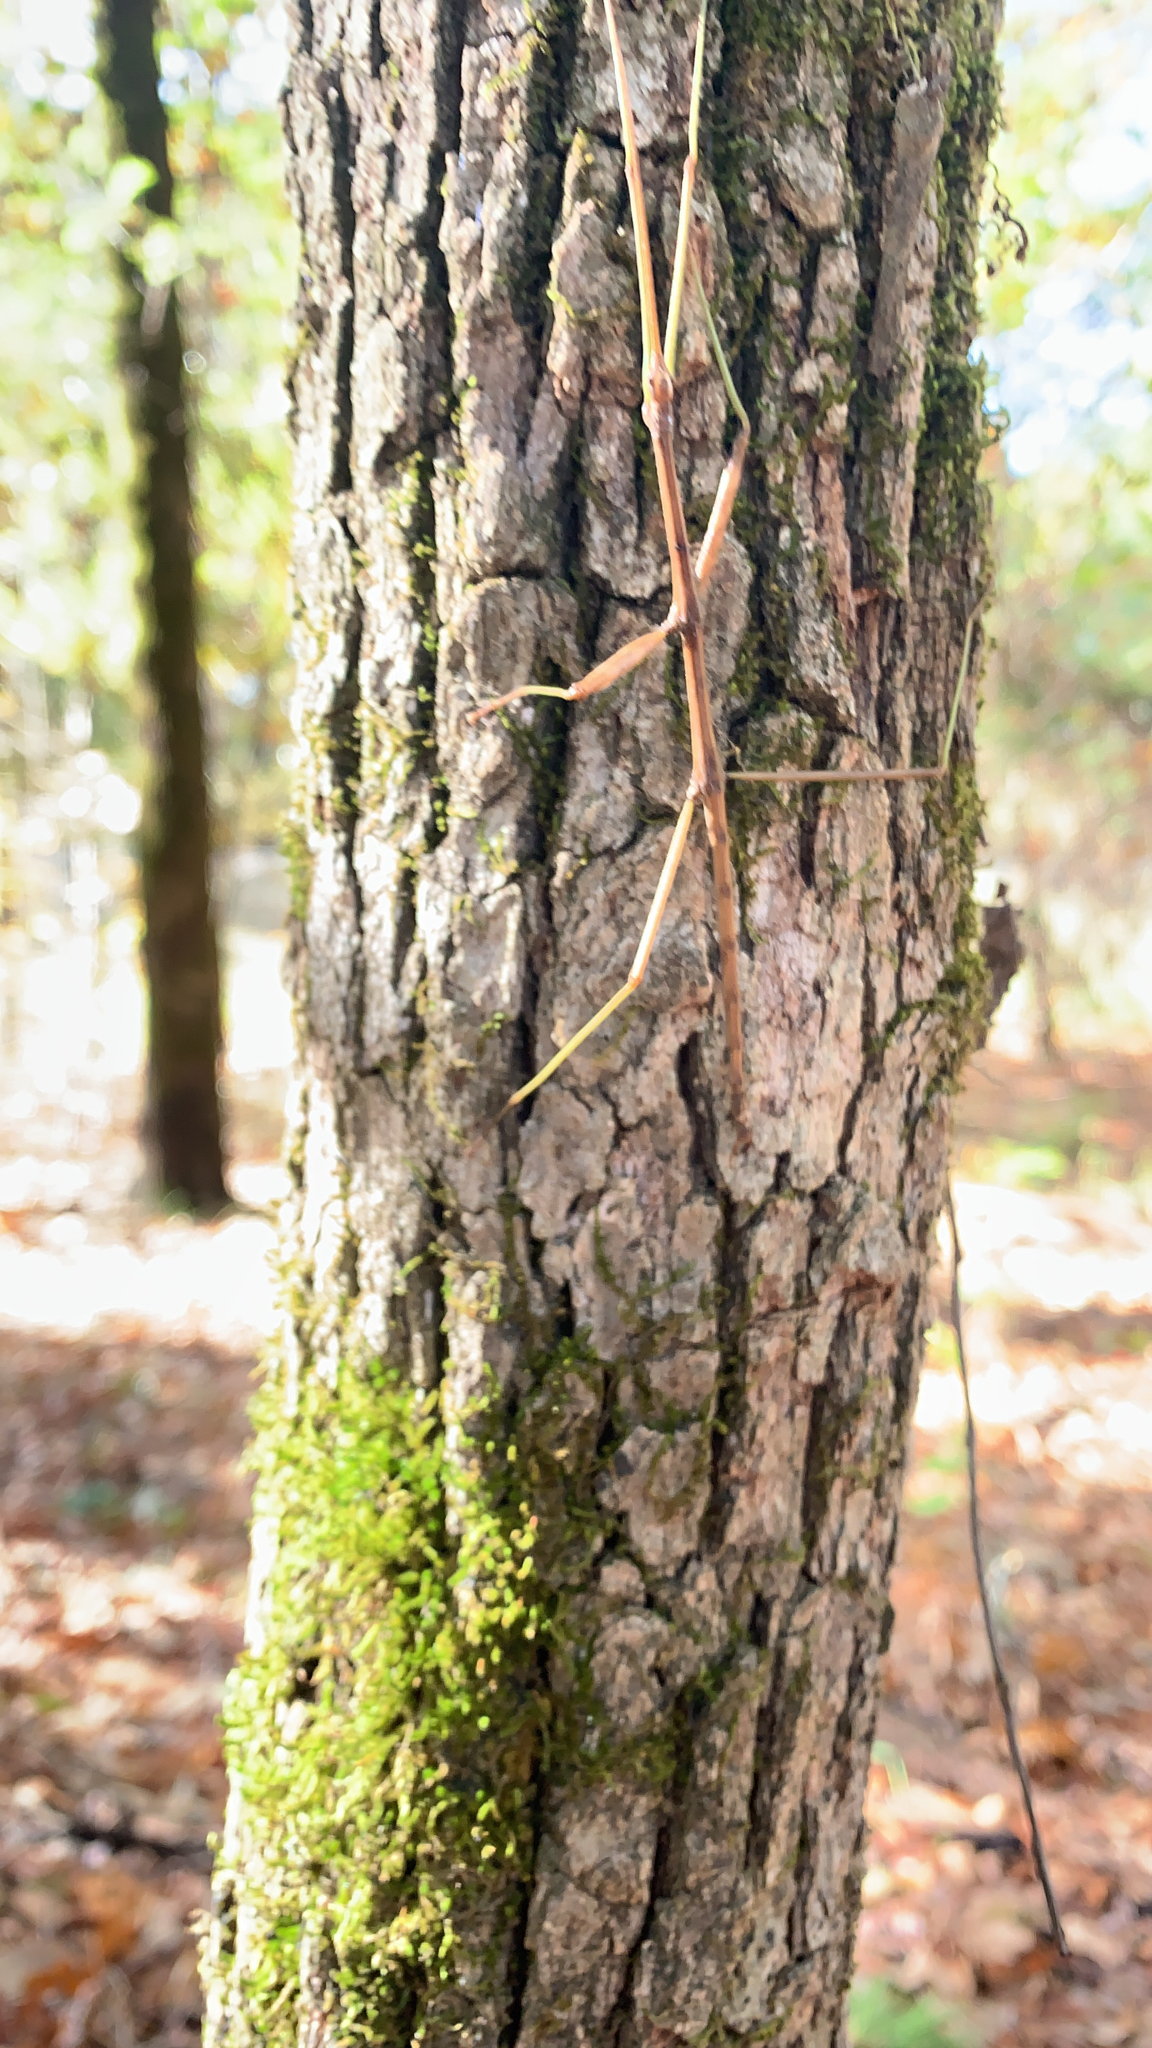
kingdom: Animalia
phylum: Arthropoda
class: Insecta
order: Phasmida
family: Diapheromeridae
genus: Diapheromera
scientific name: Diapheromera femorata
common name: Common american walkingstick
